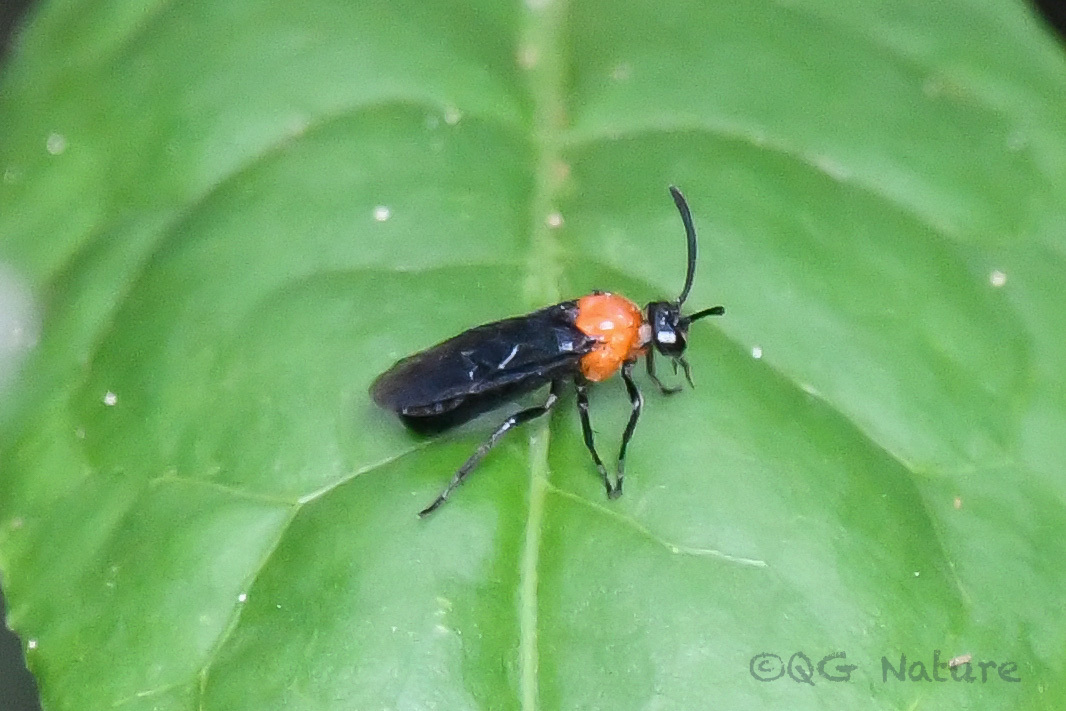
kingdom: Animalia
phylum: Arthropoda
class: Insecta
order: Hymenoptera
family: Argidae
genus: Arge
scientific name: Arge captiva
